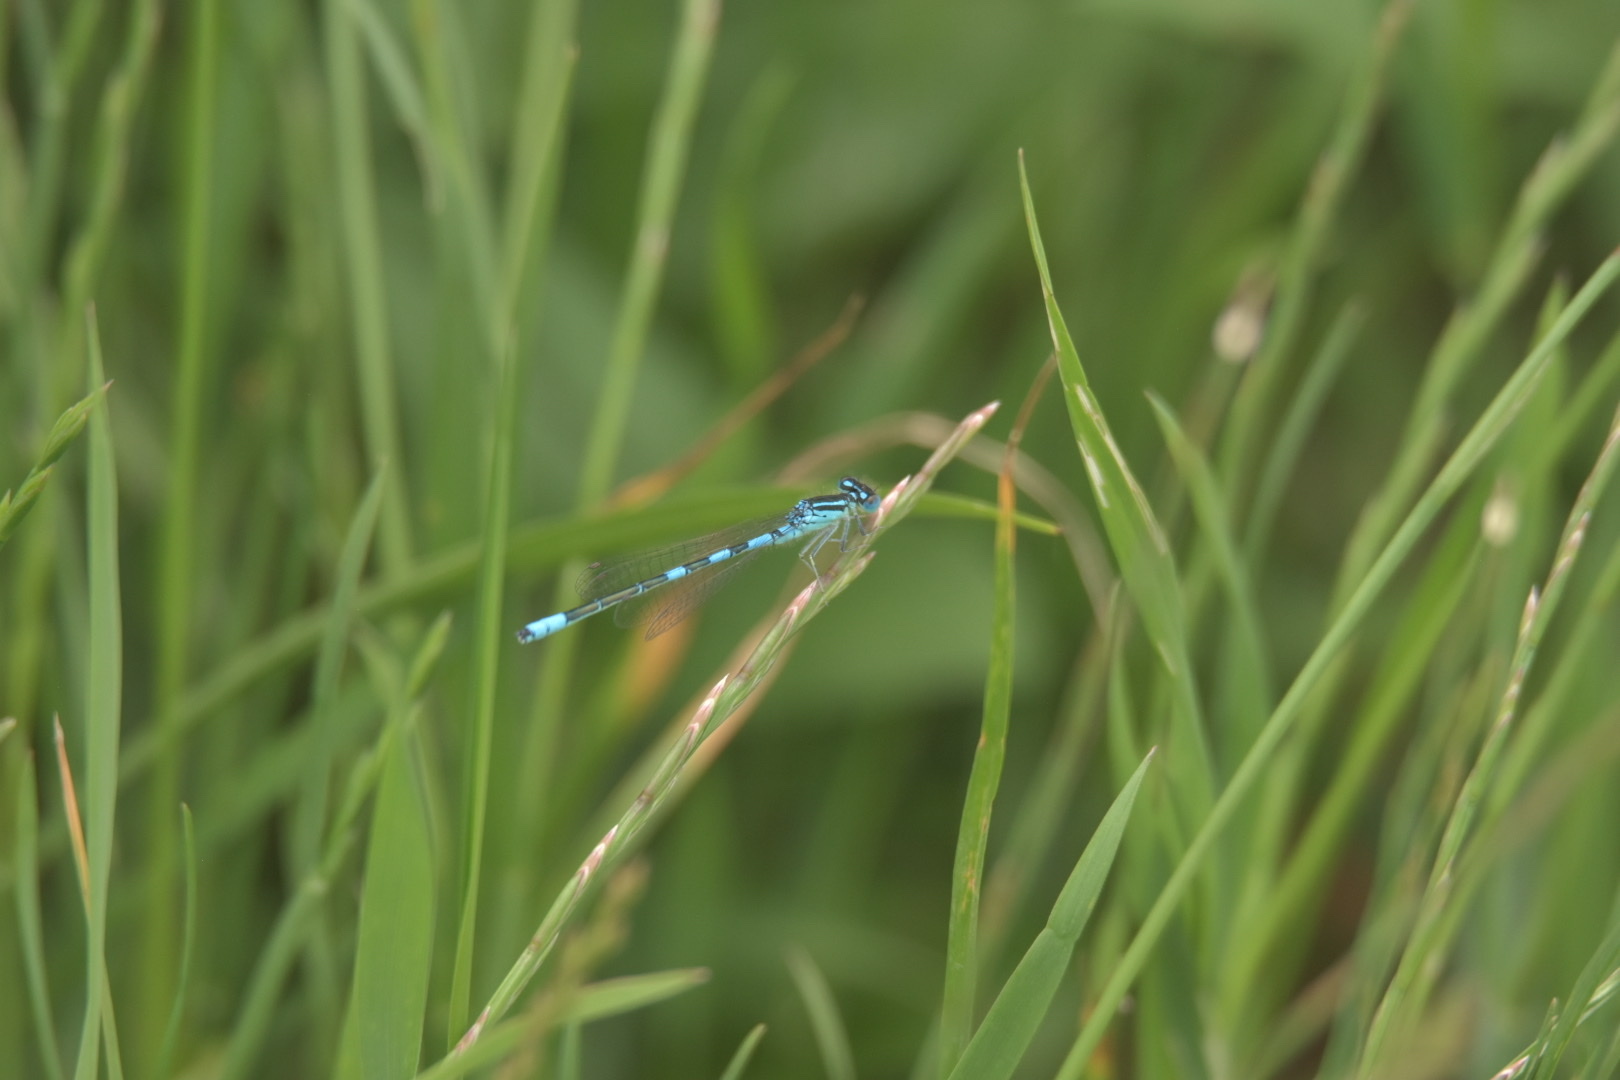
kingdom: Animalia
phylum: Arthropoda
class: Insecta
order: Odonata
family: Coenagrionidae
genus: Coenagrion
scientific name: Coenagrion scitulum
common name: Dainty bluet
